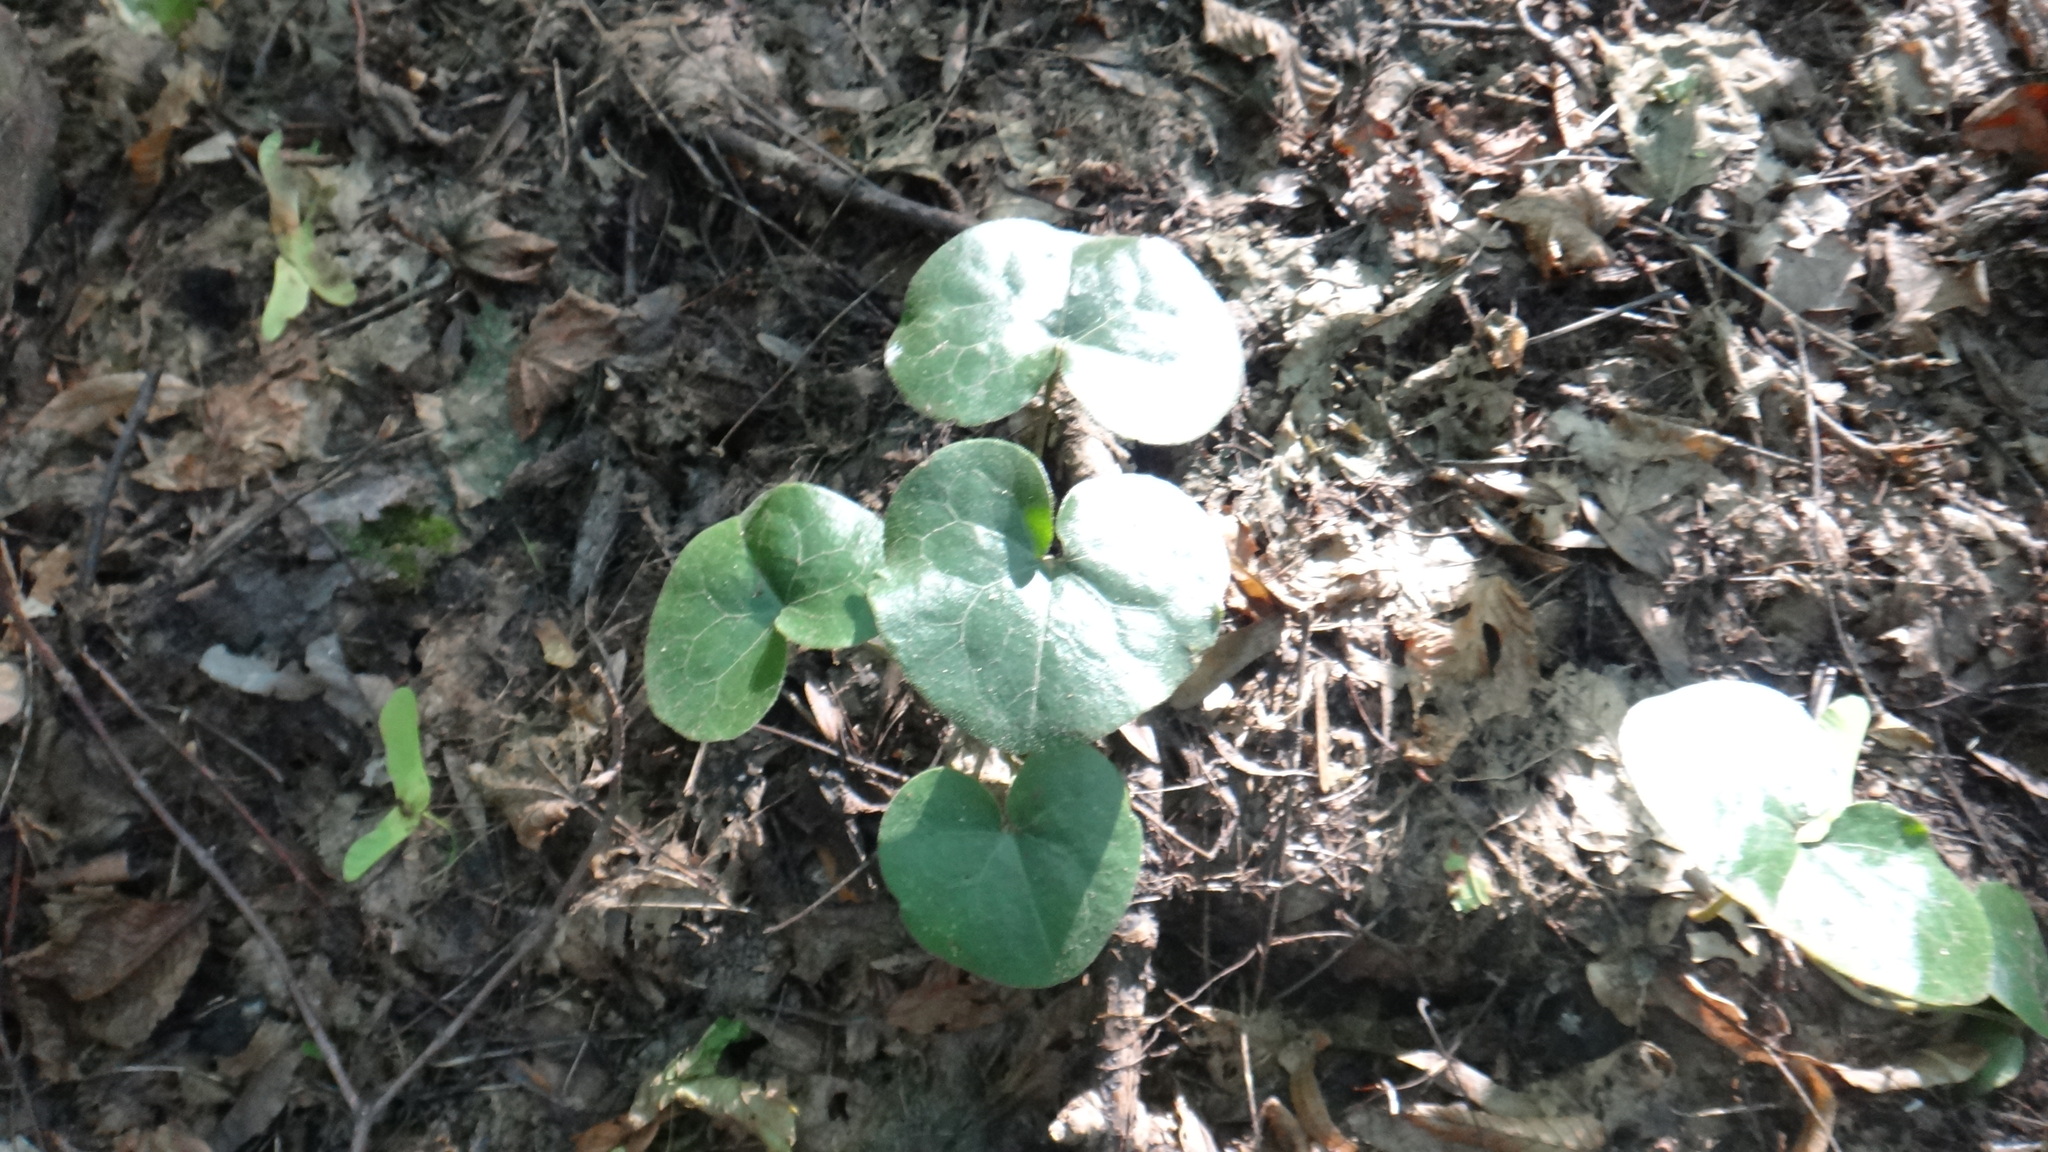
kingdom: Plantae
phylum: Tracheophyta
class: Magnoliopsida
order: Piperales
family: Aristolochiaceae
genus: Asarum
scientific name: Asarum europaeum
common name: Asarabacca
